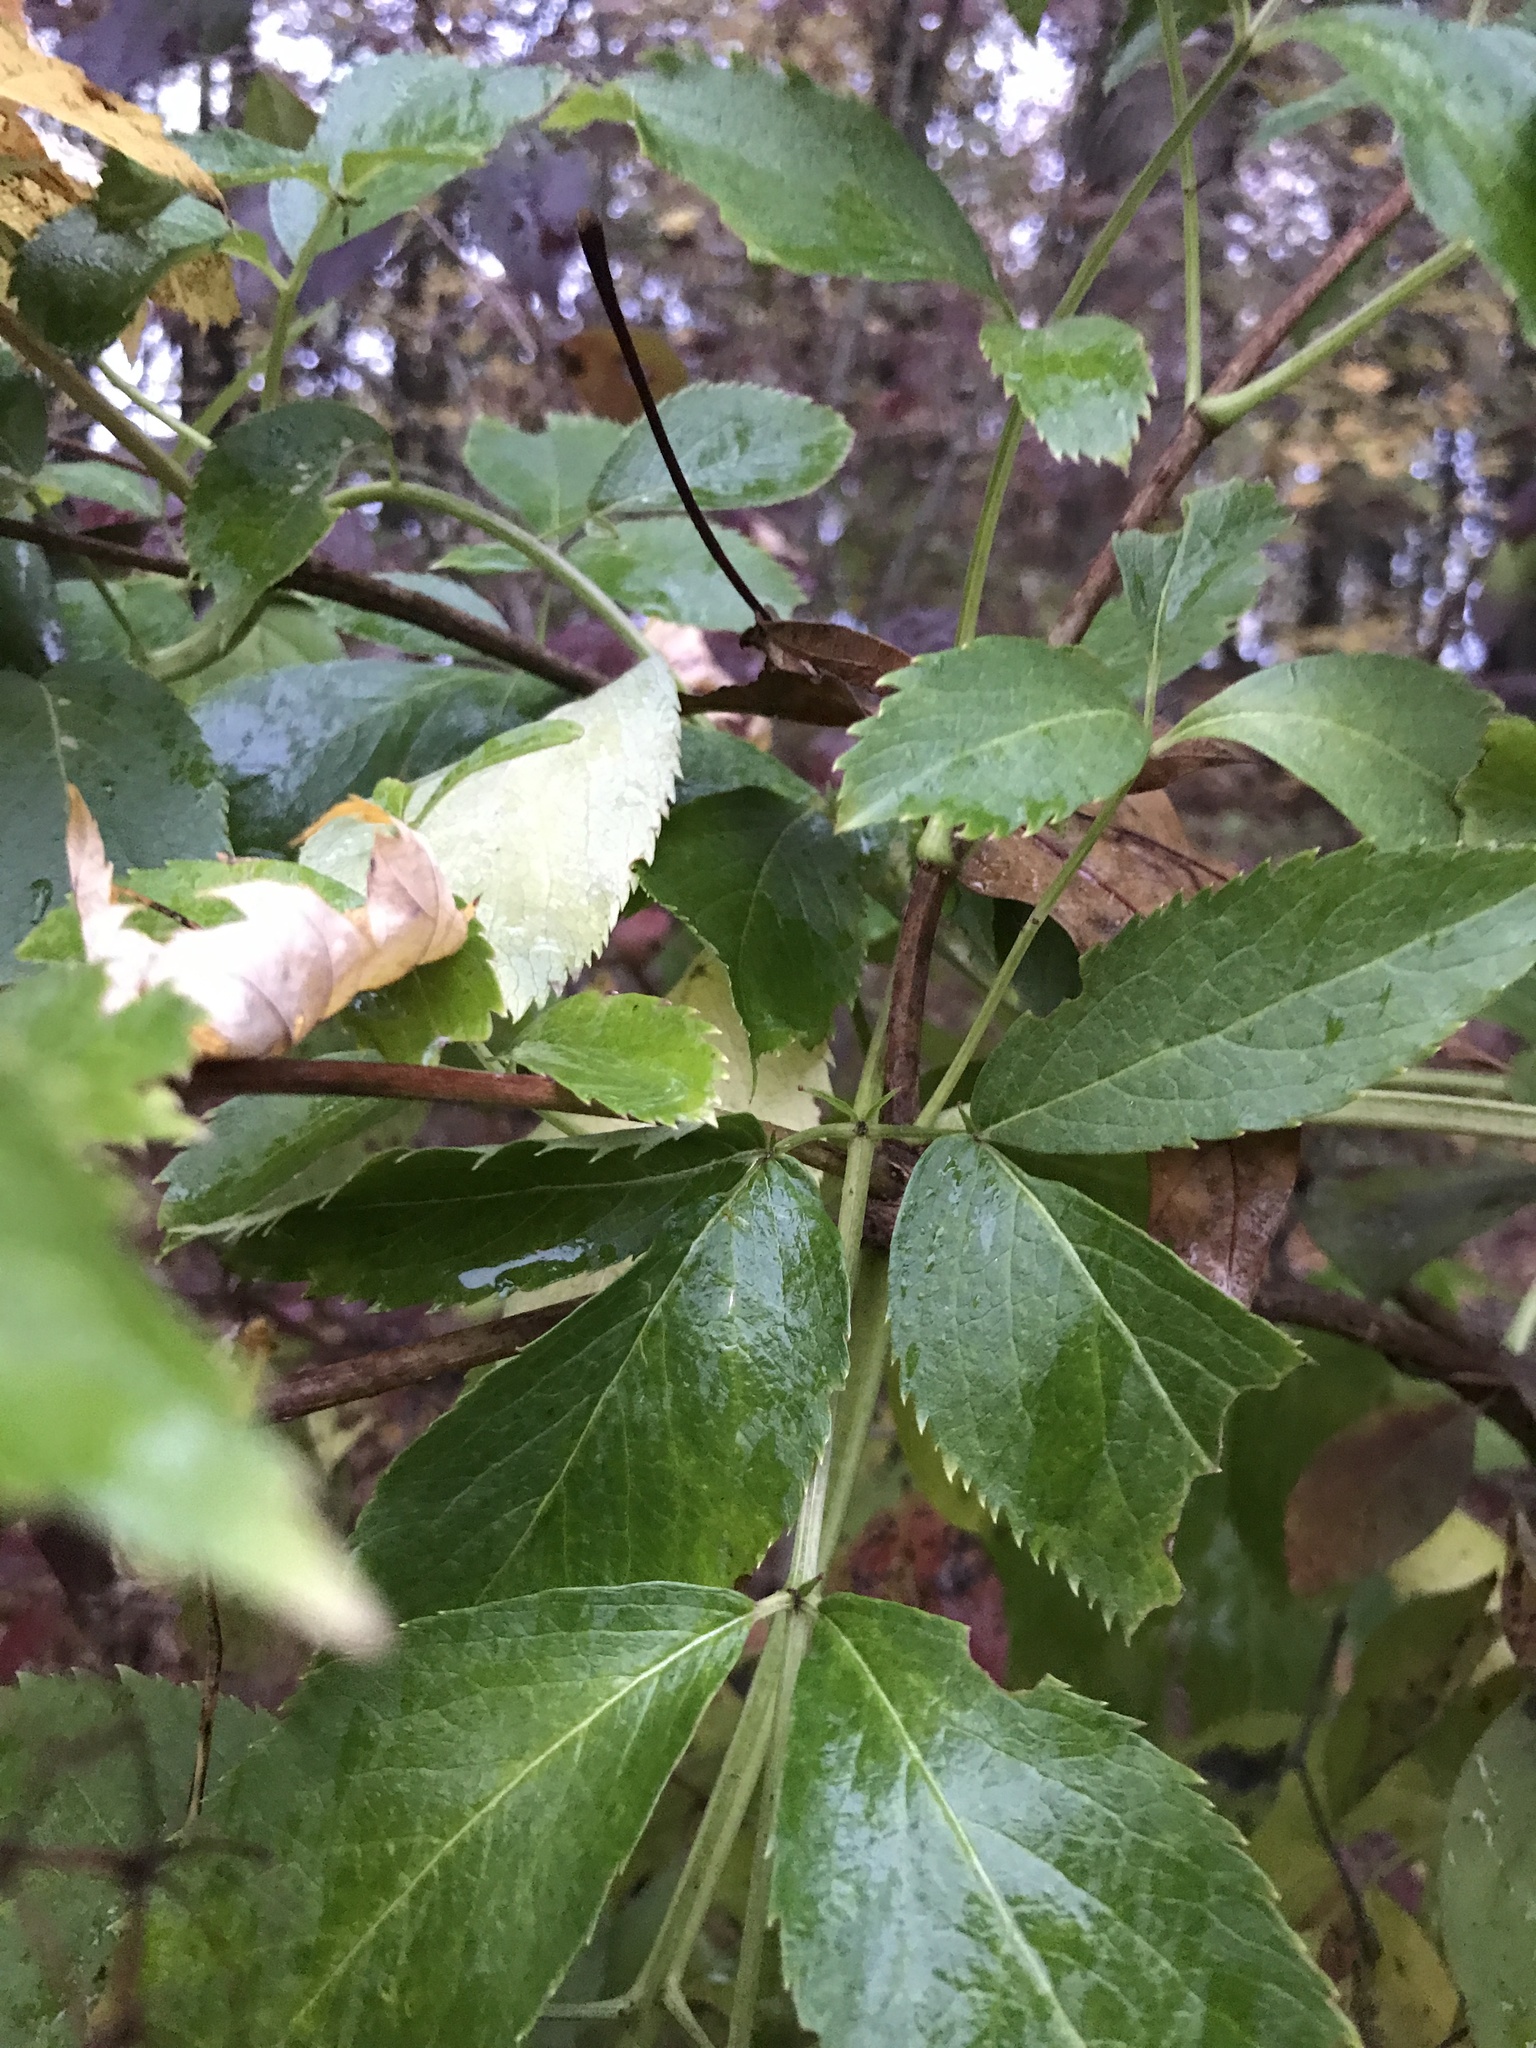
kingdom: Plantae
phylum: Tracheophyta
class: Magnoliopsida
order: Dipsacales
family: Viburnaceae
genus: Sambucus
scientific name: Sambucus canadensis
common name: American elder
